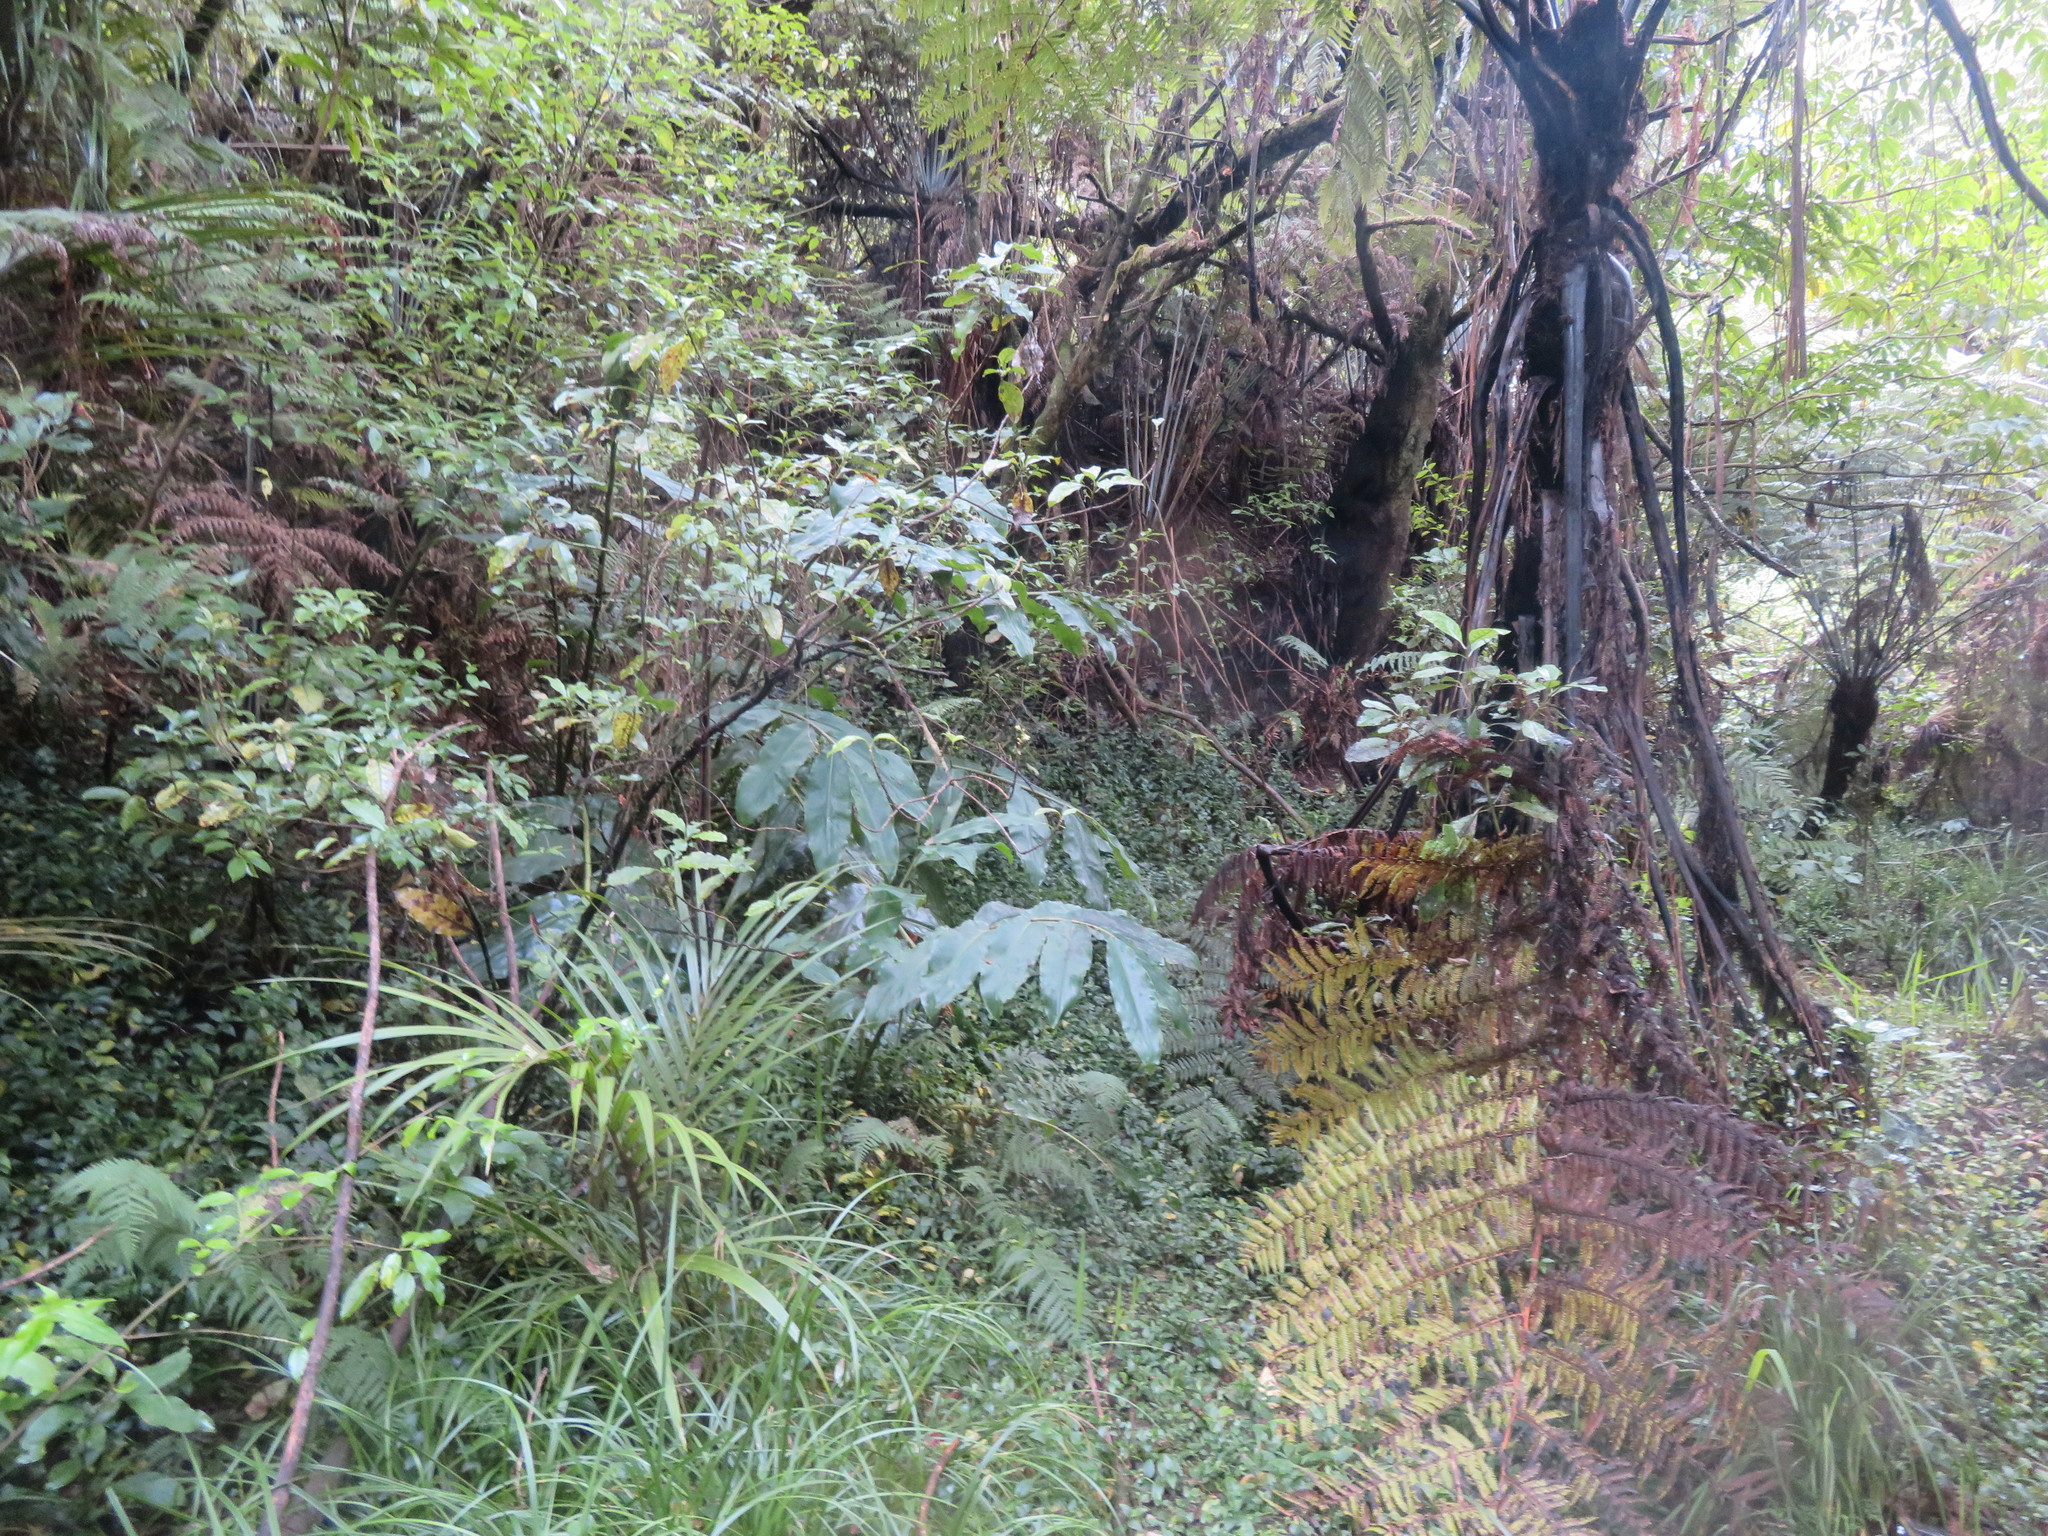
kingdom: Plantae
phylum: Tracheophyta
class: Polypodiopsida
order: Cyatheales
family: Cyatheaceae
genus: Sphaeropteris
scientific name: Sphaeropteris medullaris
